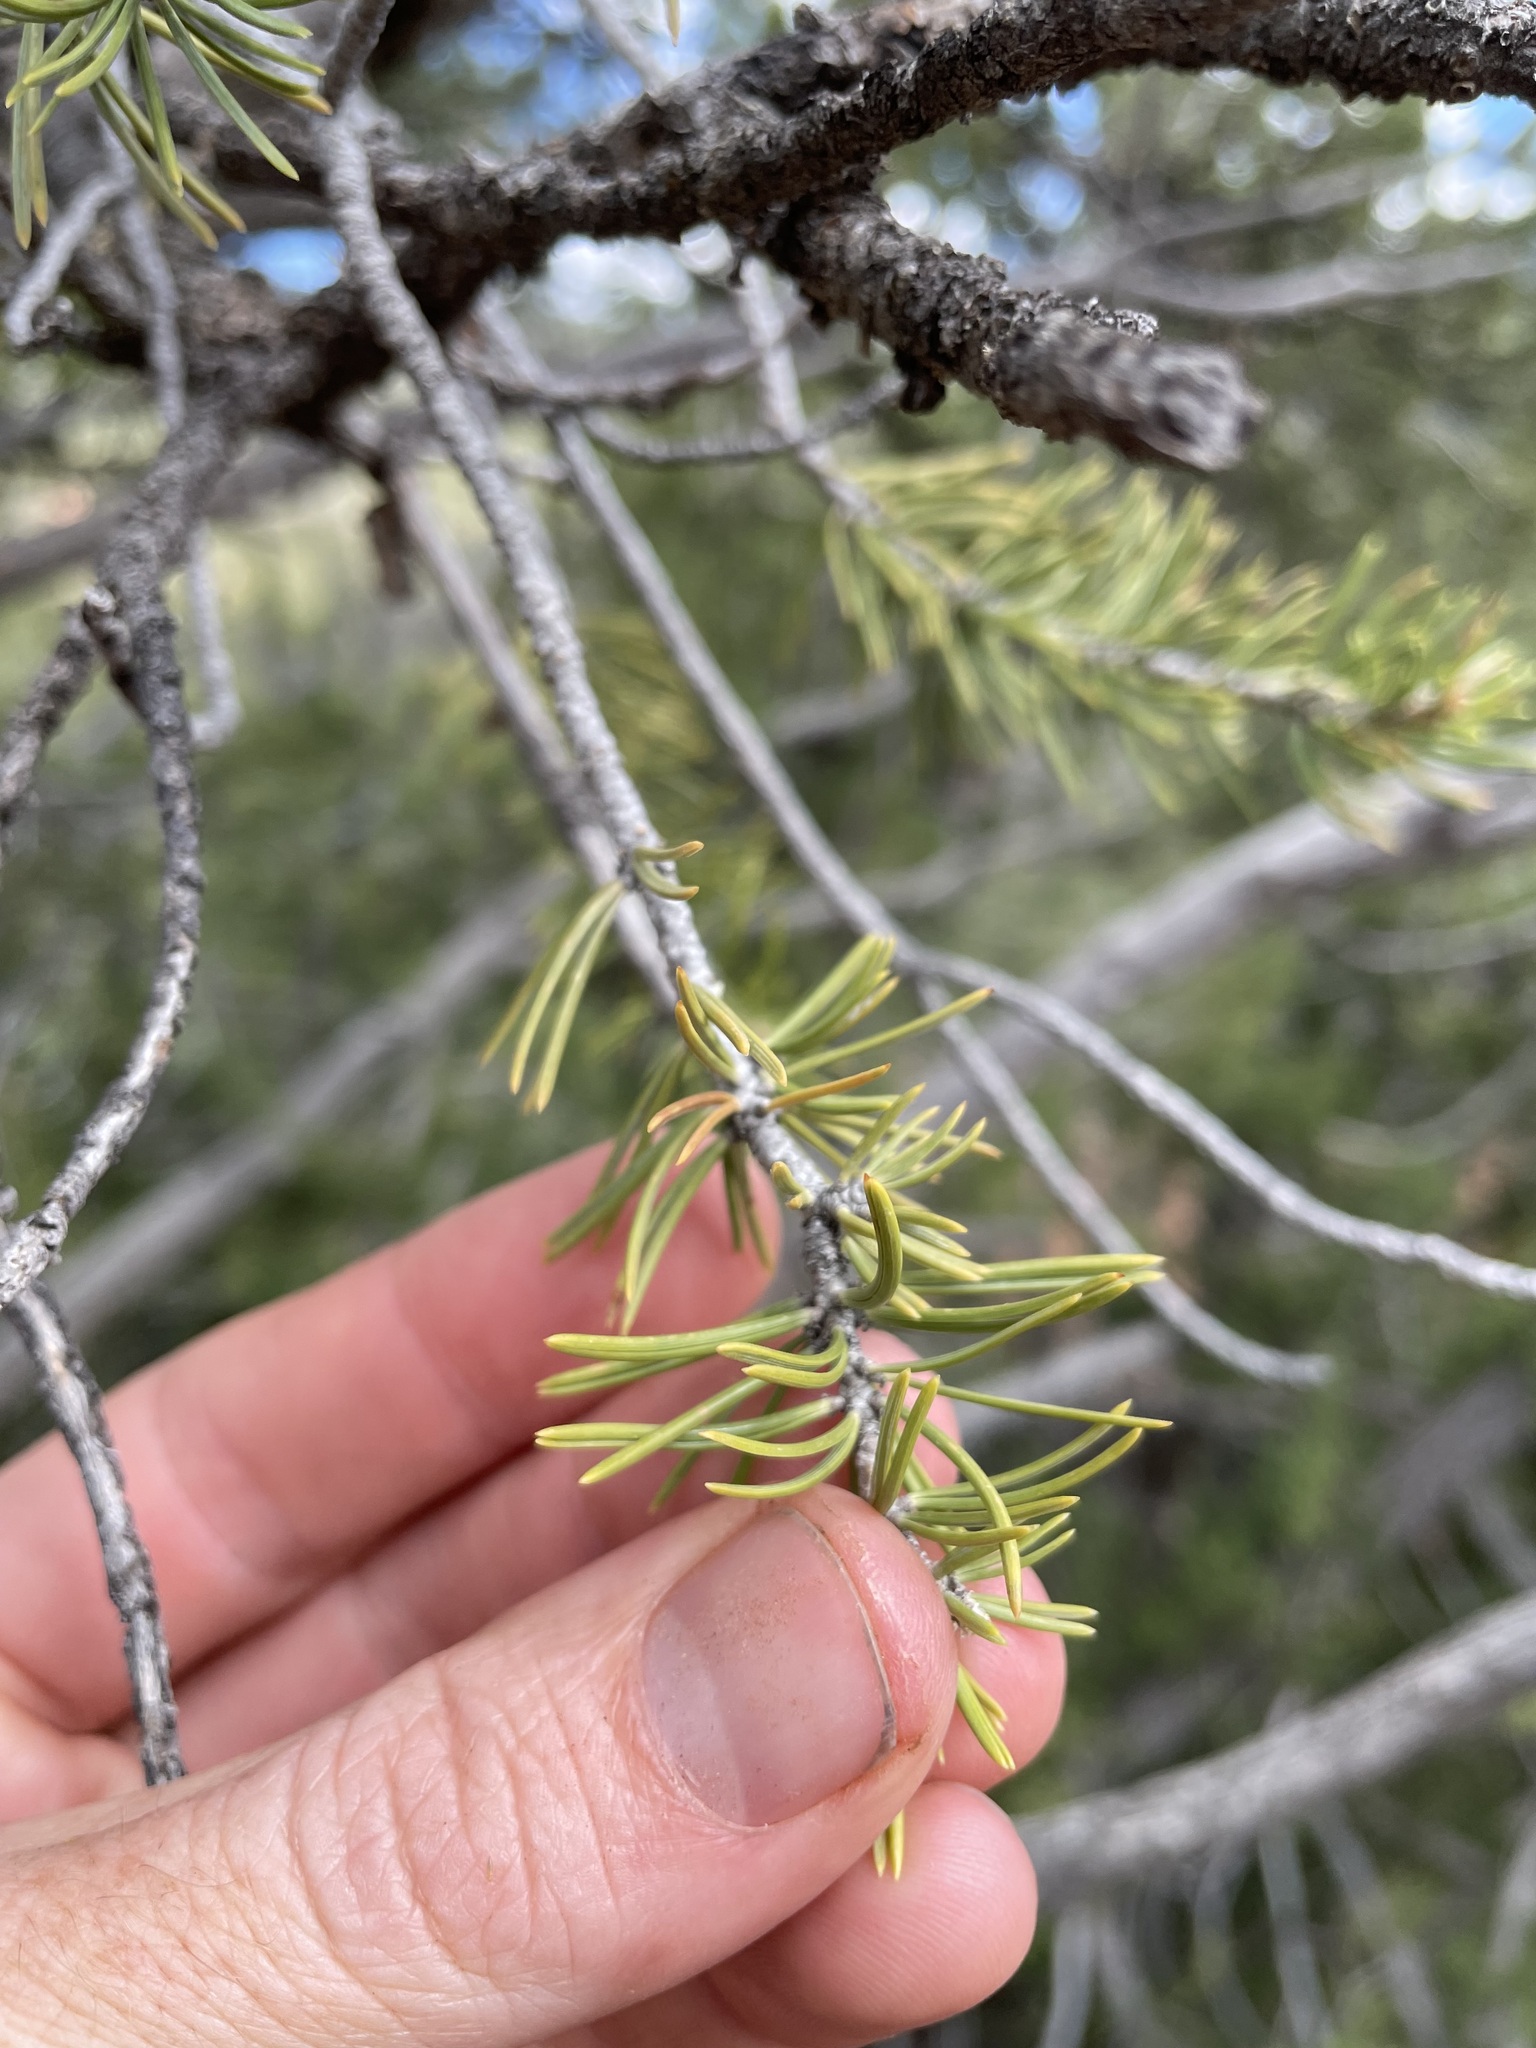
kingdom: Plantae
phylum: Tracheophyta
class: Pinopsida
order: Pinales
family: Pinaceae
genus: Pinus
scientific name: Pinus edulis
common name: Colorado pinyon
